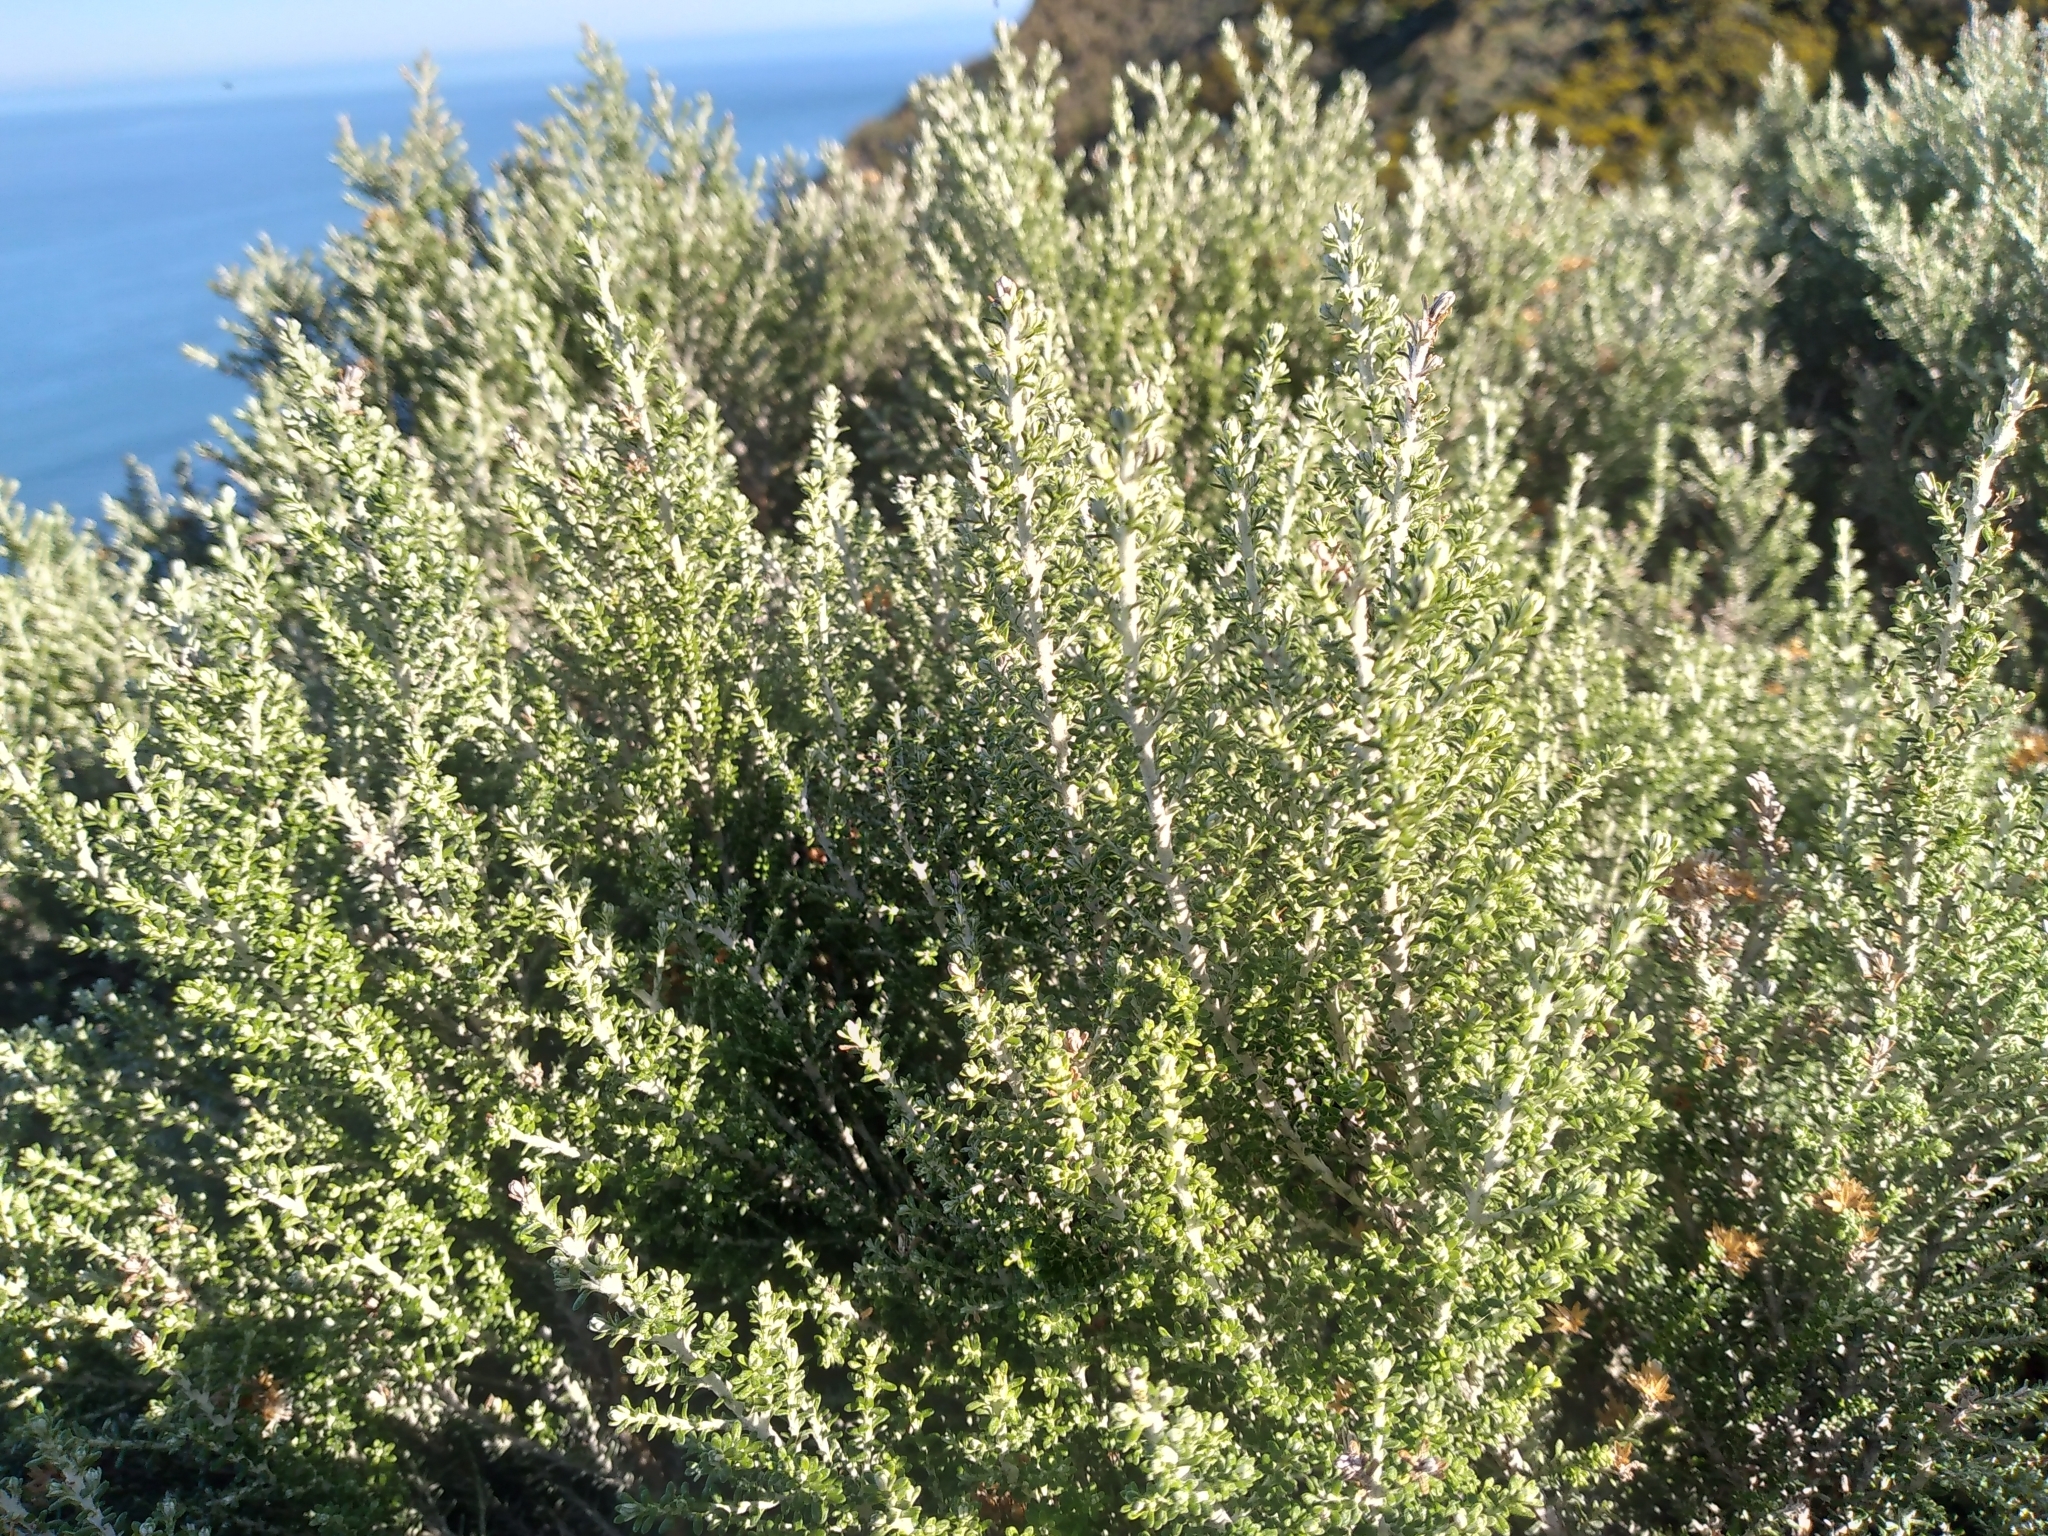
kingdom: Plantae
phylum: Tracheophyta
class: Magnoliopsida
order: Asterales
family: Asteraceae
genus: Ozothamnus
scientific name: Ozothamnus leptophyllus
